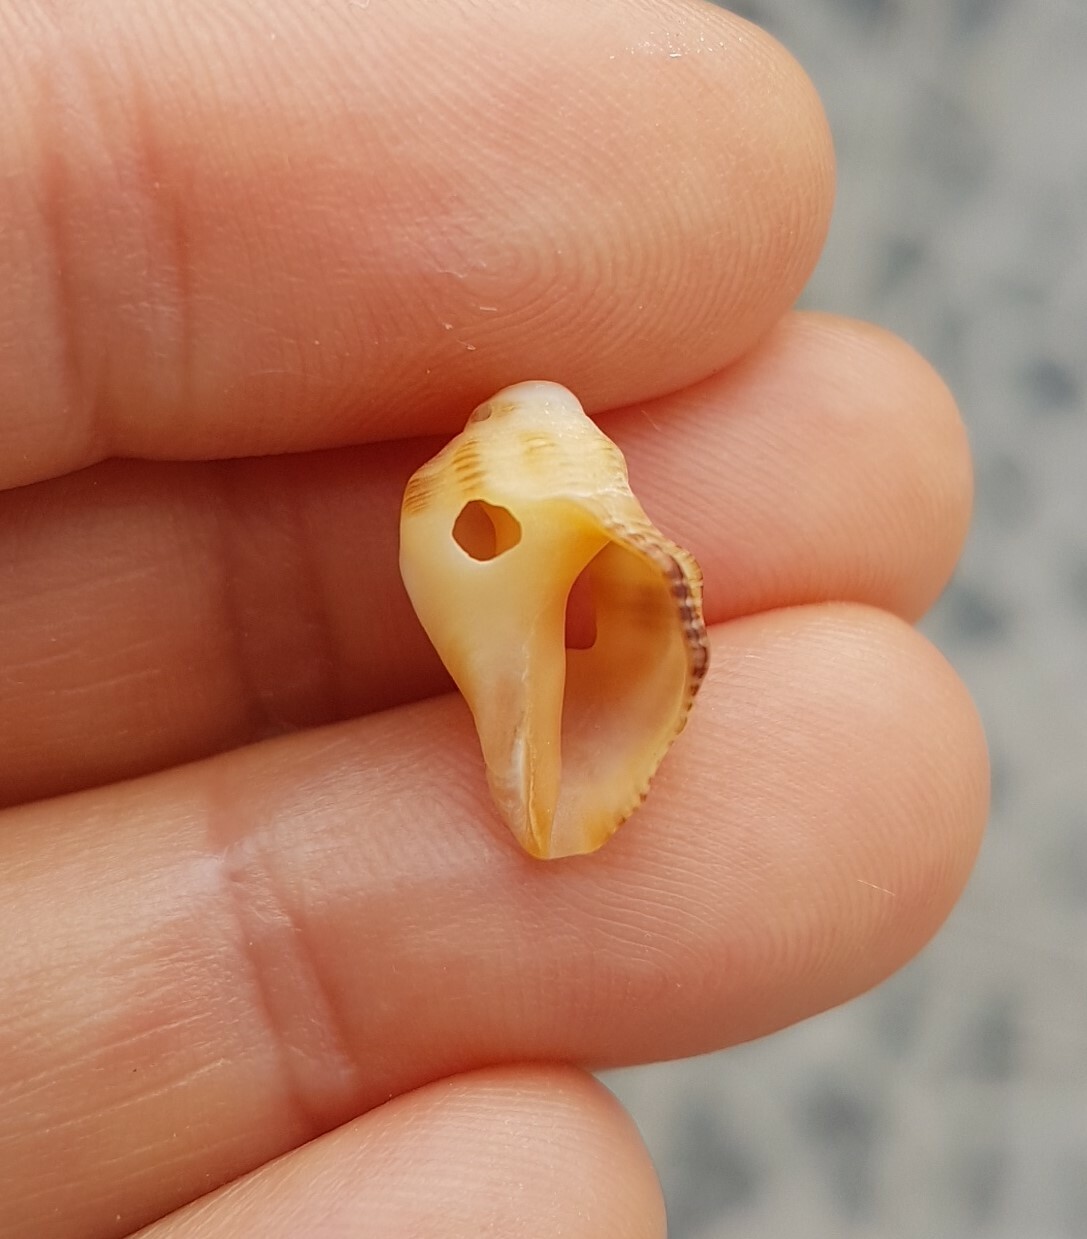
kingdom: Animalia
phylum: Mollusca
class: Gastropoda
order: Neogastropoda
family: Muricidae
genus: Stramonita
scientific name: Stramonita haemastoma
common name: Florida dog winkle
